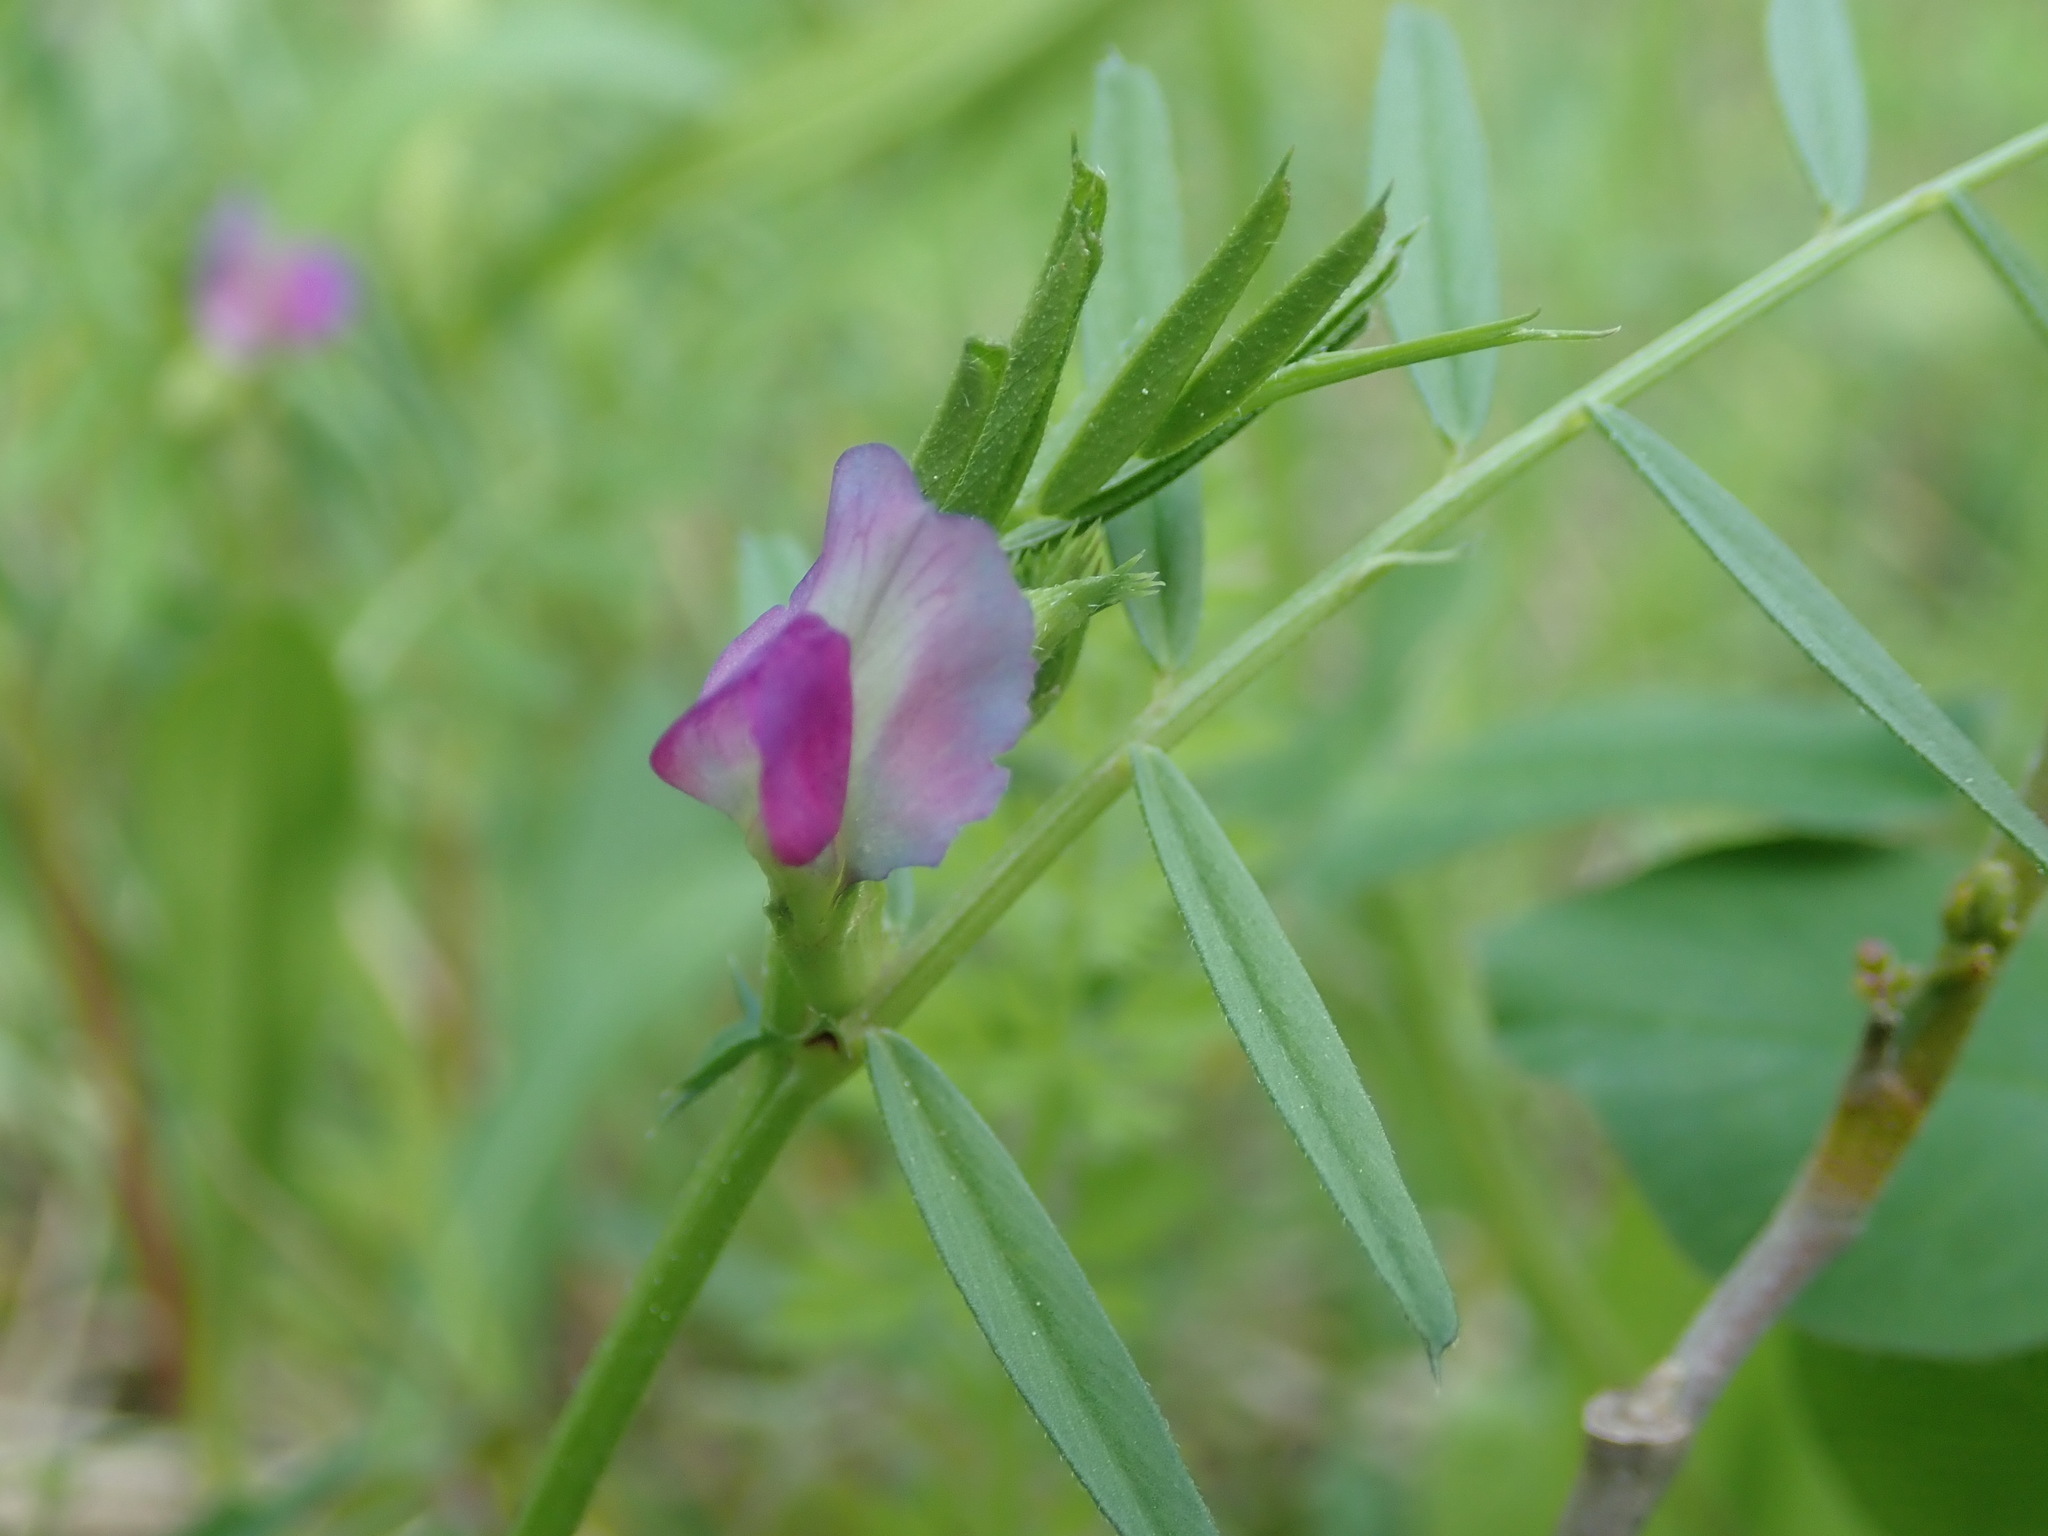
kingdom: Plantae
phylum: Tracheophyta
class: Magnoliopsida
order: Fabales
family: Fabaceae
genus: Vicia
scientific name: Vicia sativa
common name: Garden vetch
